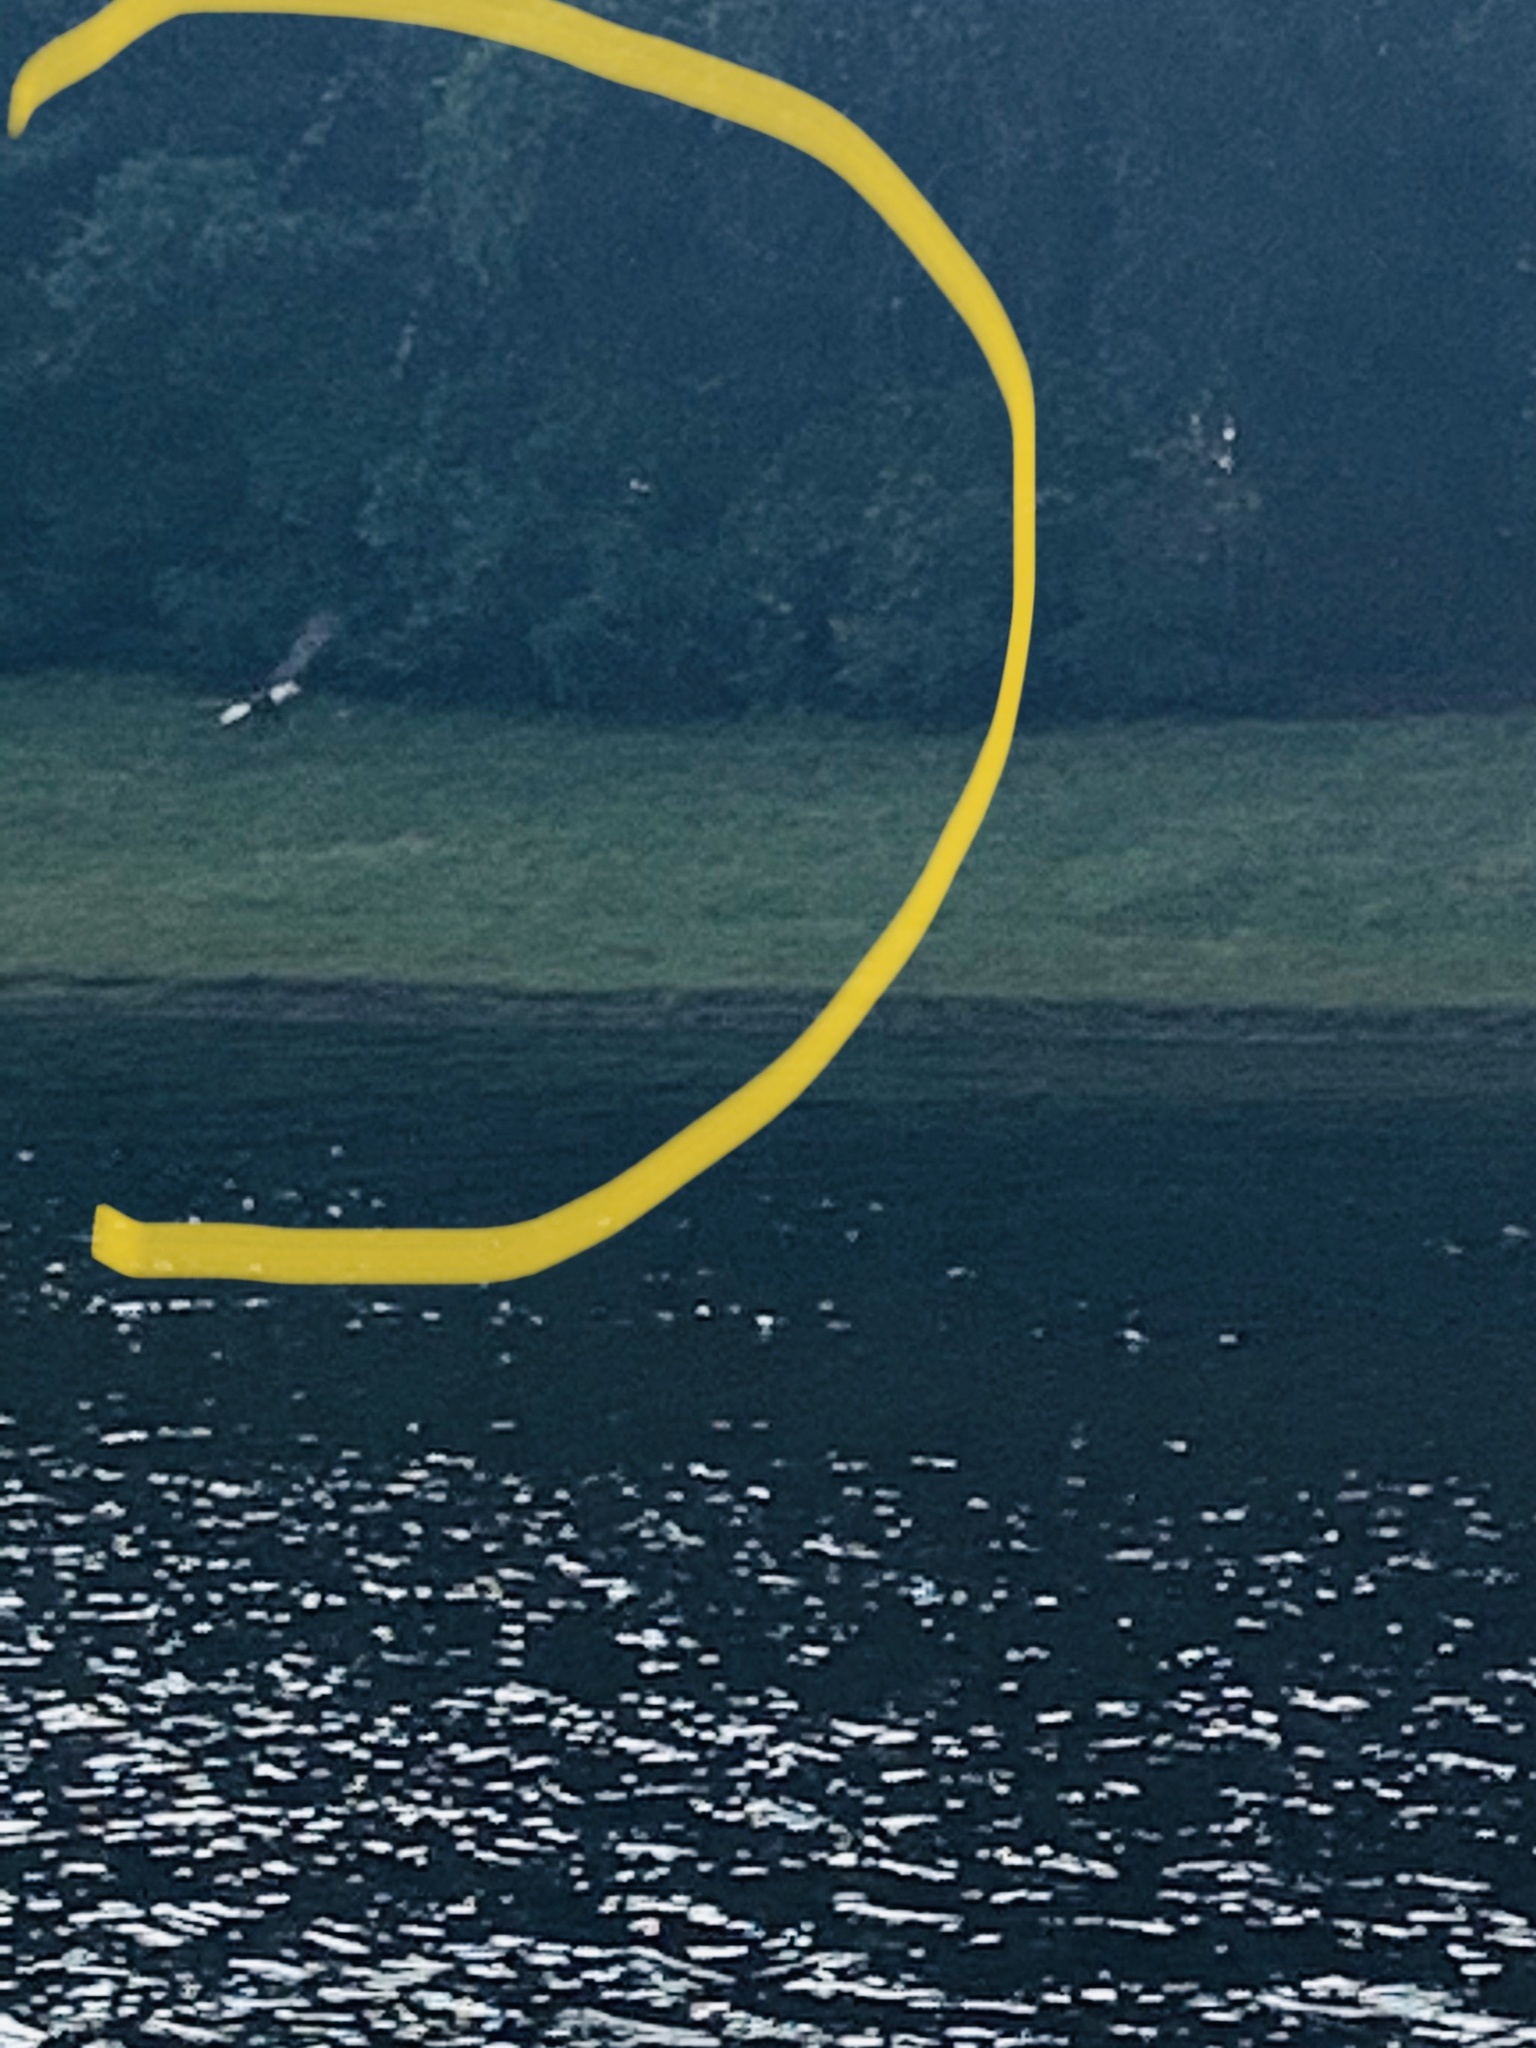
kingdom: Animalia
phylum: Chordata
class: Aves
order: Accipitriformes
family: Accipitridae
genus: Haliaeetus
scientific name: Haliaeetus leucocephalus
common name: Bald eagle
